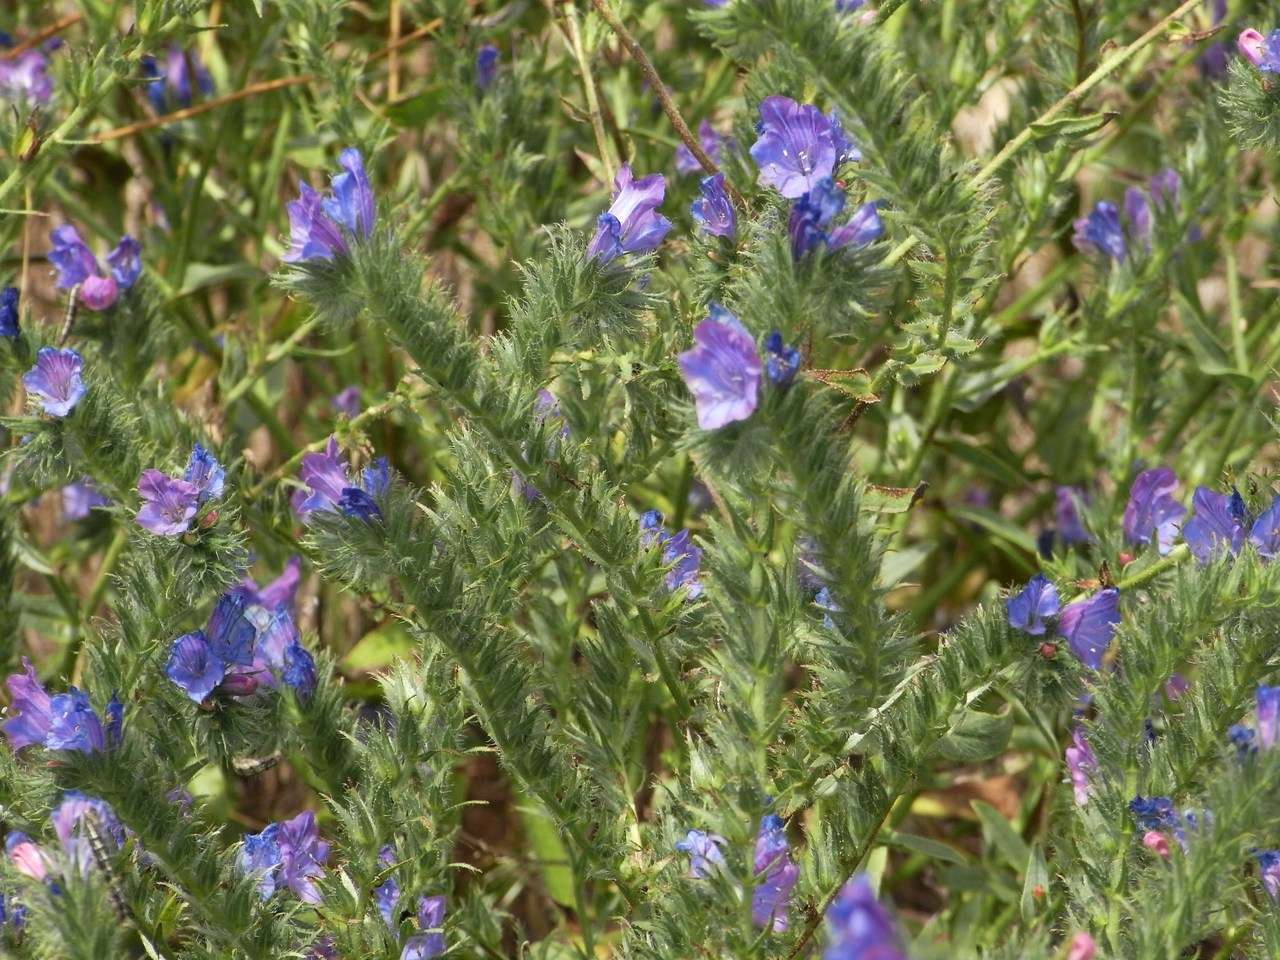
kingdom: Plantae
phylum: Tracheophyta
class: Magnoliopsida
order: Boraginales
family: Boraginaceae
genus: Echium
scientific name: Echium plantagineum
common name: Purple viper's-bugloss
